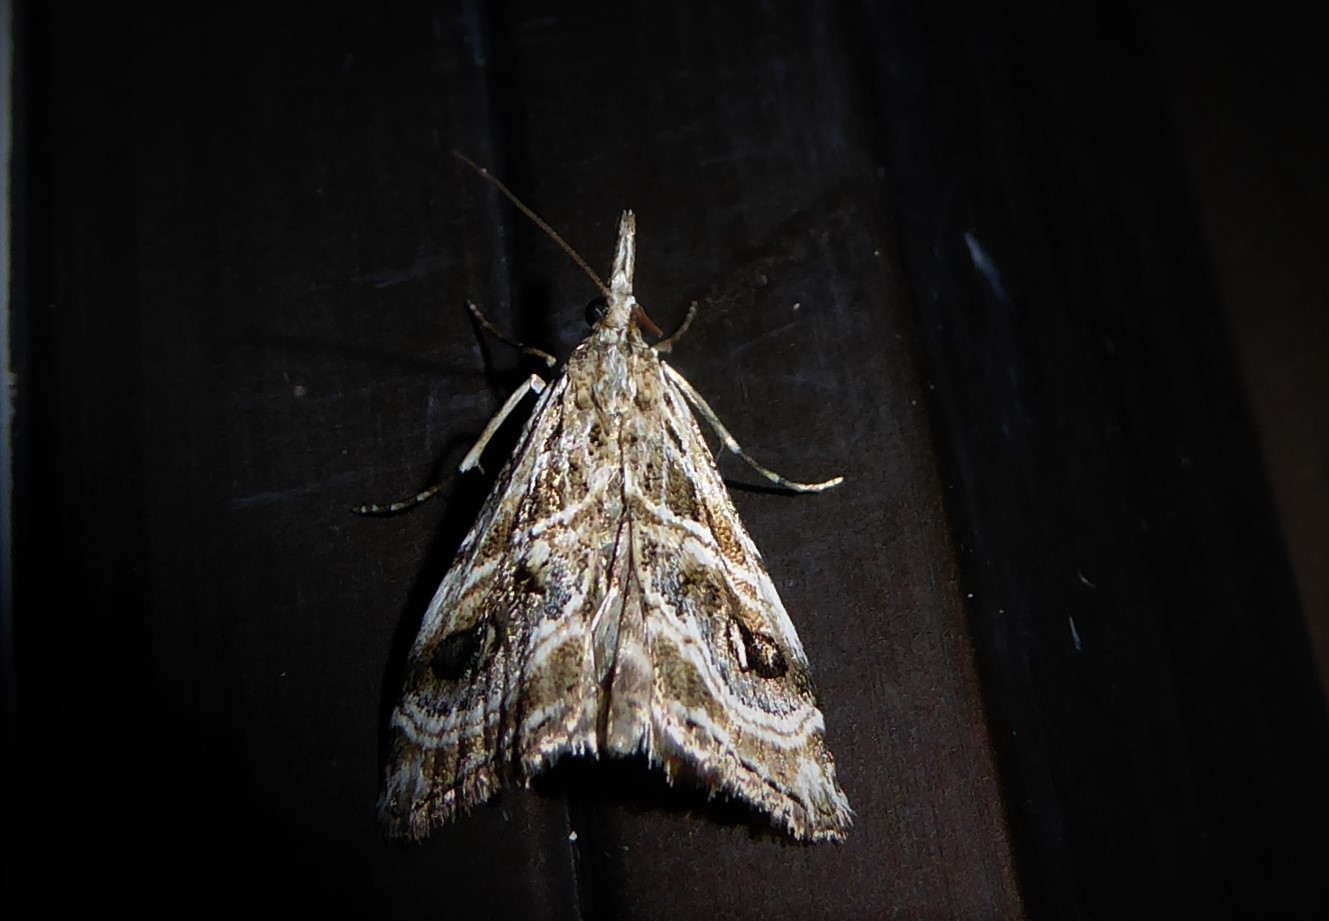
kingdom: Animalia
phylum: Arthropoda
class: Insecta
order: Lepidoptera
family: Crambidae
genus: Gadira
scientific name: Gadira acerella
